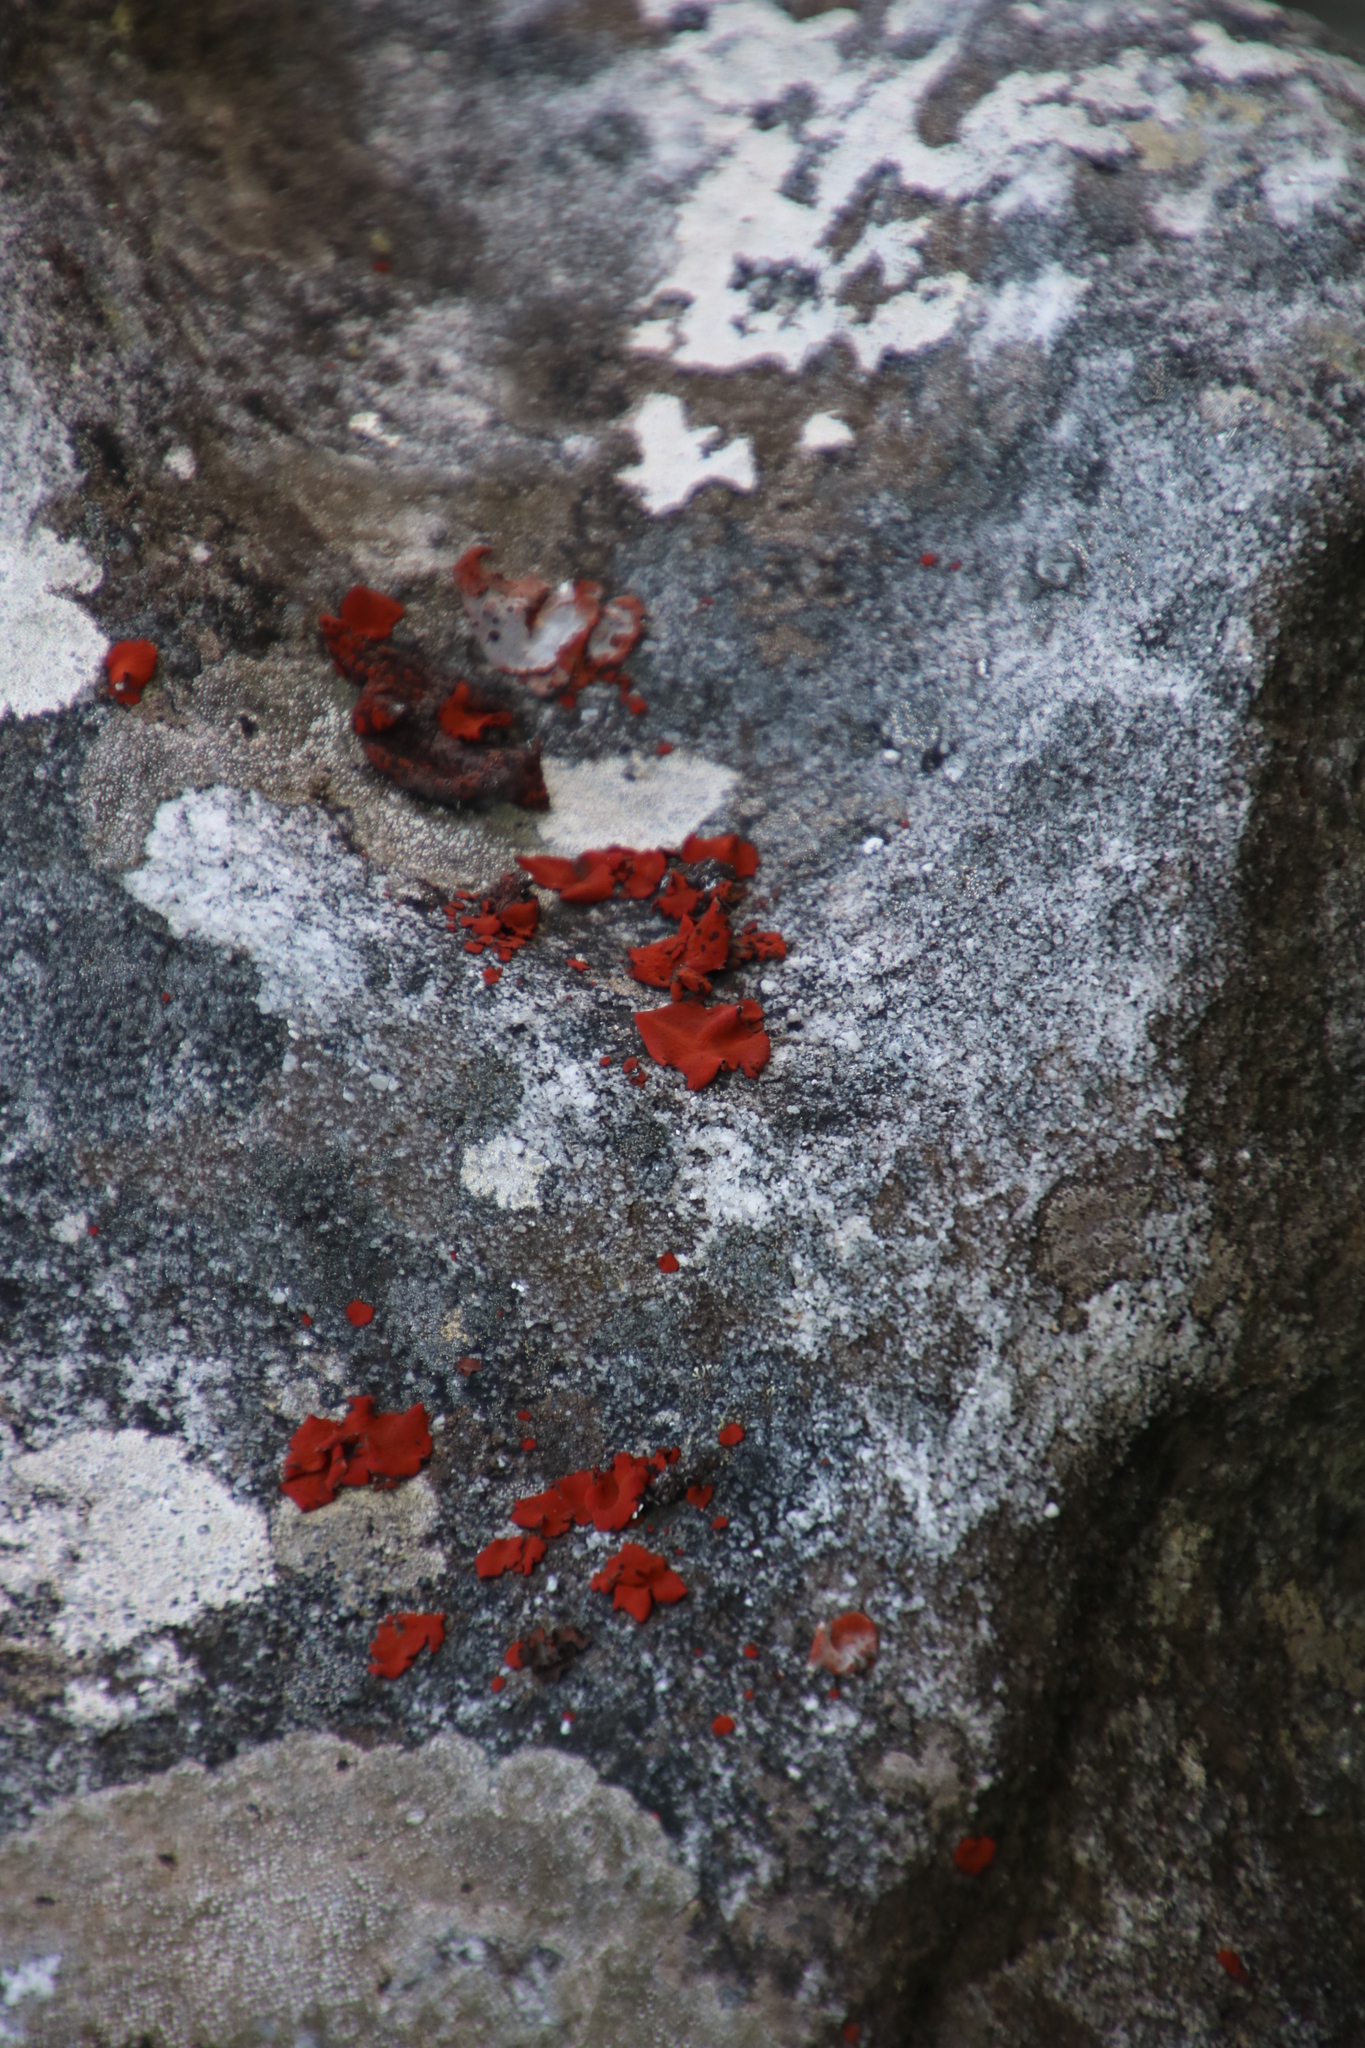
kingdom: Fungi
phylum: Ascomycota
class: Lecanoromycetes
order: Umbilicariales
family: Umbilicariaceae
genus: Lasallia
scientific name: Lasallia rubiginosa
